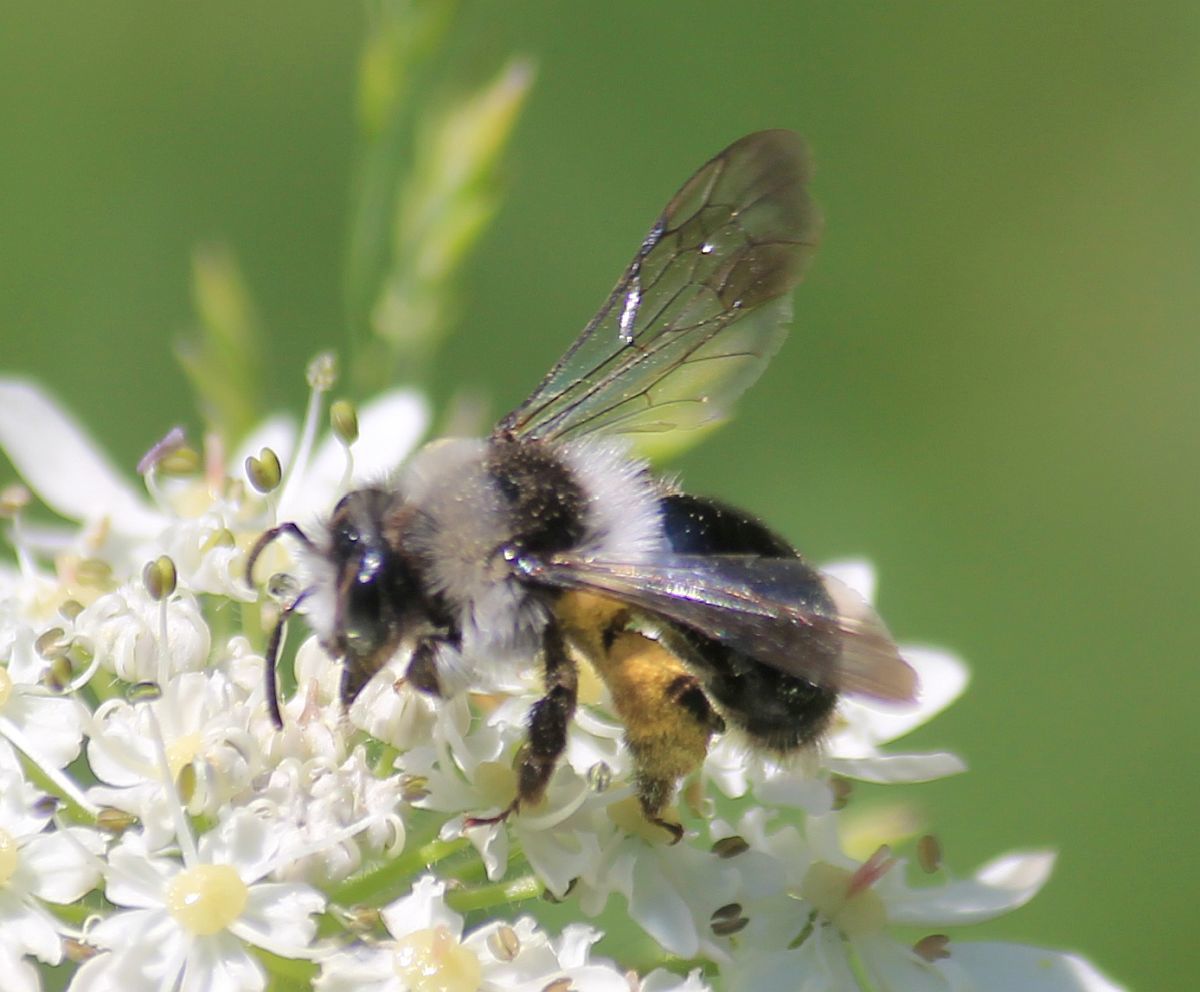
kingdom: Animalia
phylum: Arthropoda
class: Insecta
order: Hymenoptera
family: Andrenidae
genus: Andrena
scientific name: Andrena cineraria
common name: Ashy mining bee
